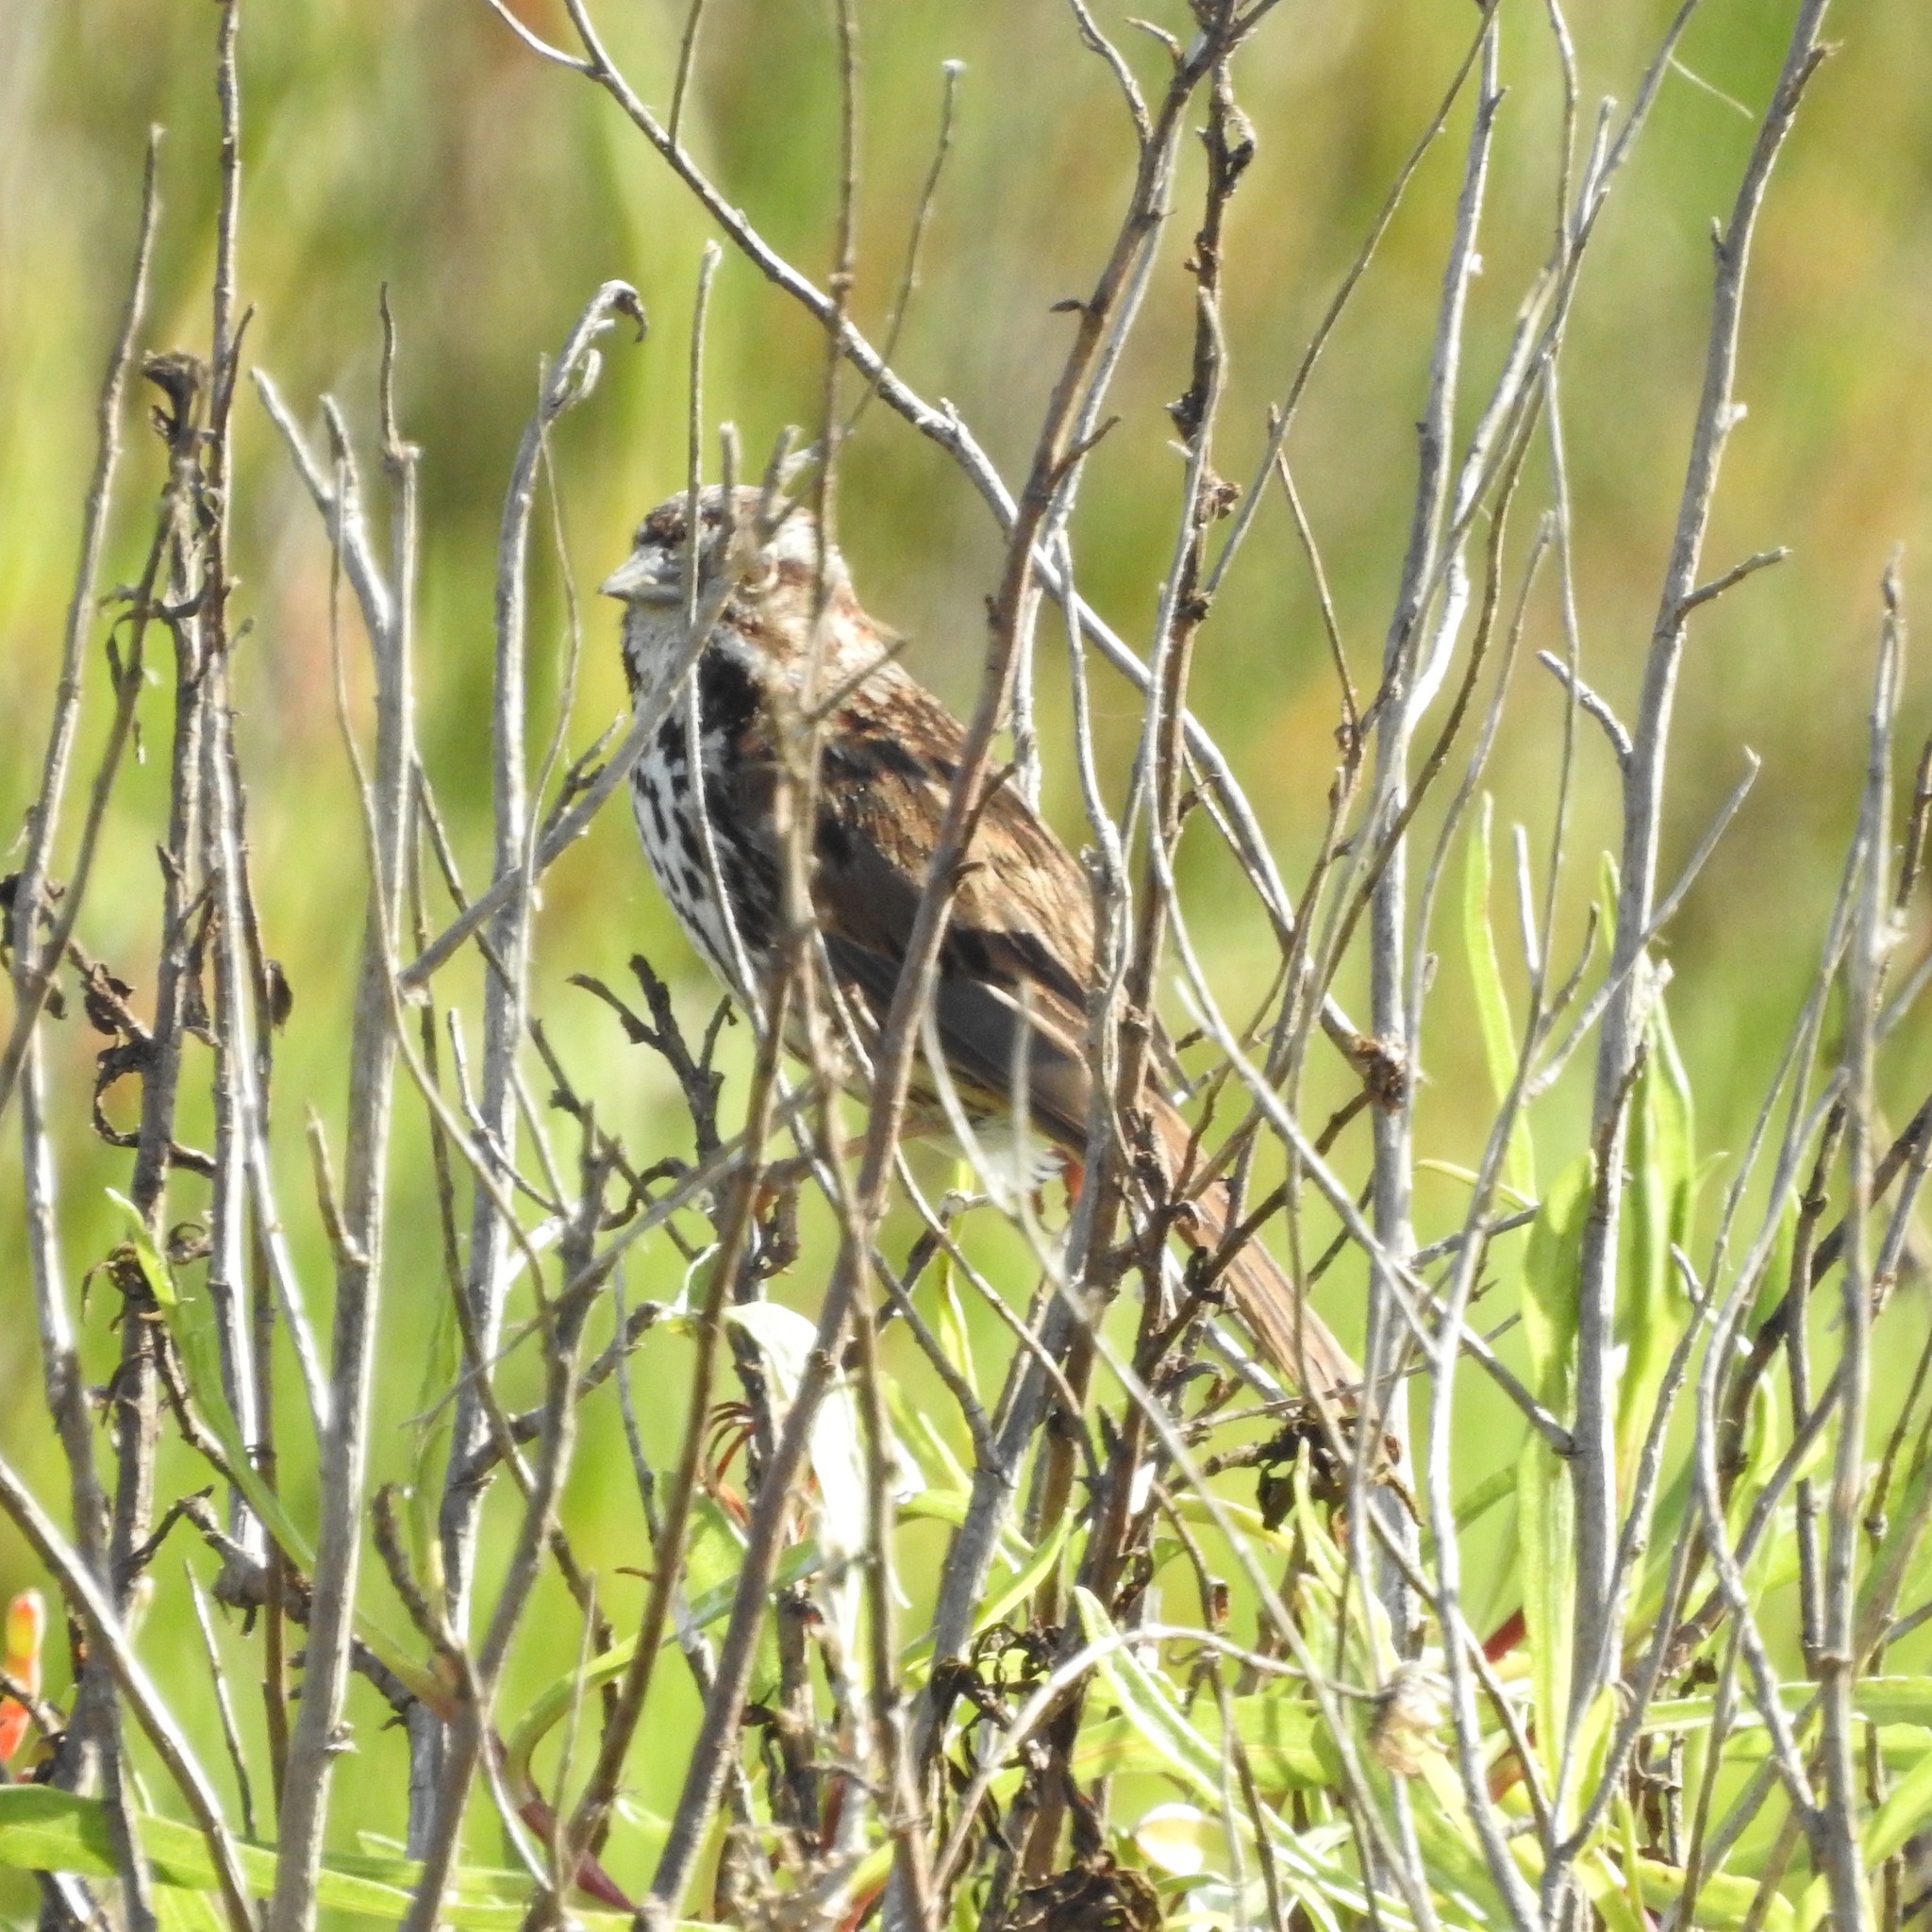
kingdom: Animalia
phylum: Chordata
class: Aves
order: Passeriformes
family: Passerellidae
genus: Melospiza
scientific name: Melospiza melodia
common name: Song sparrow
